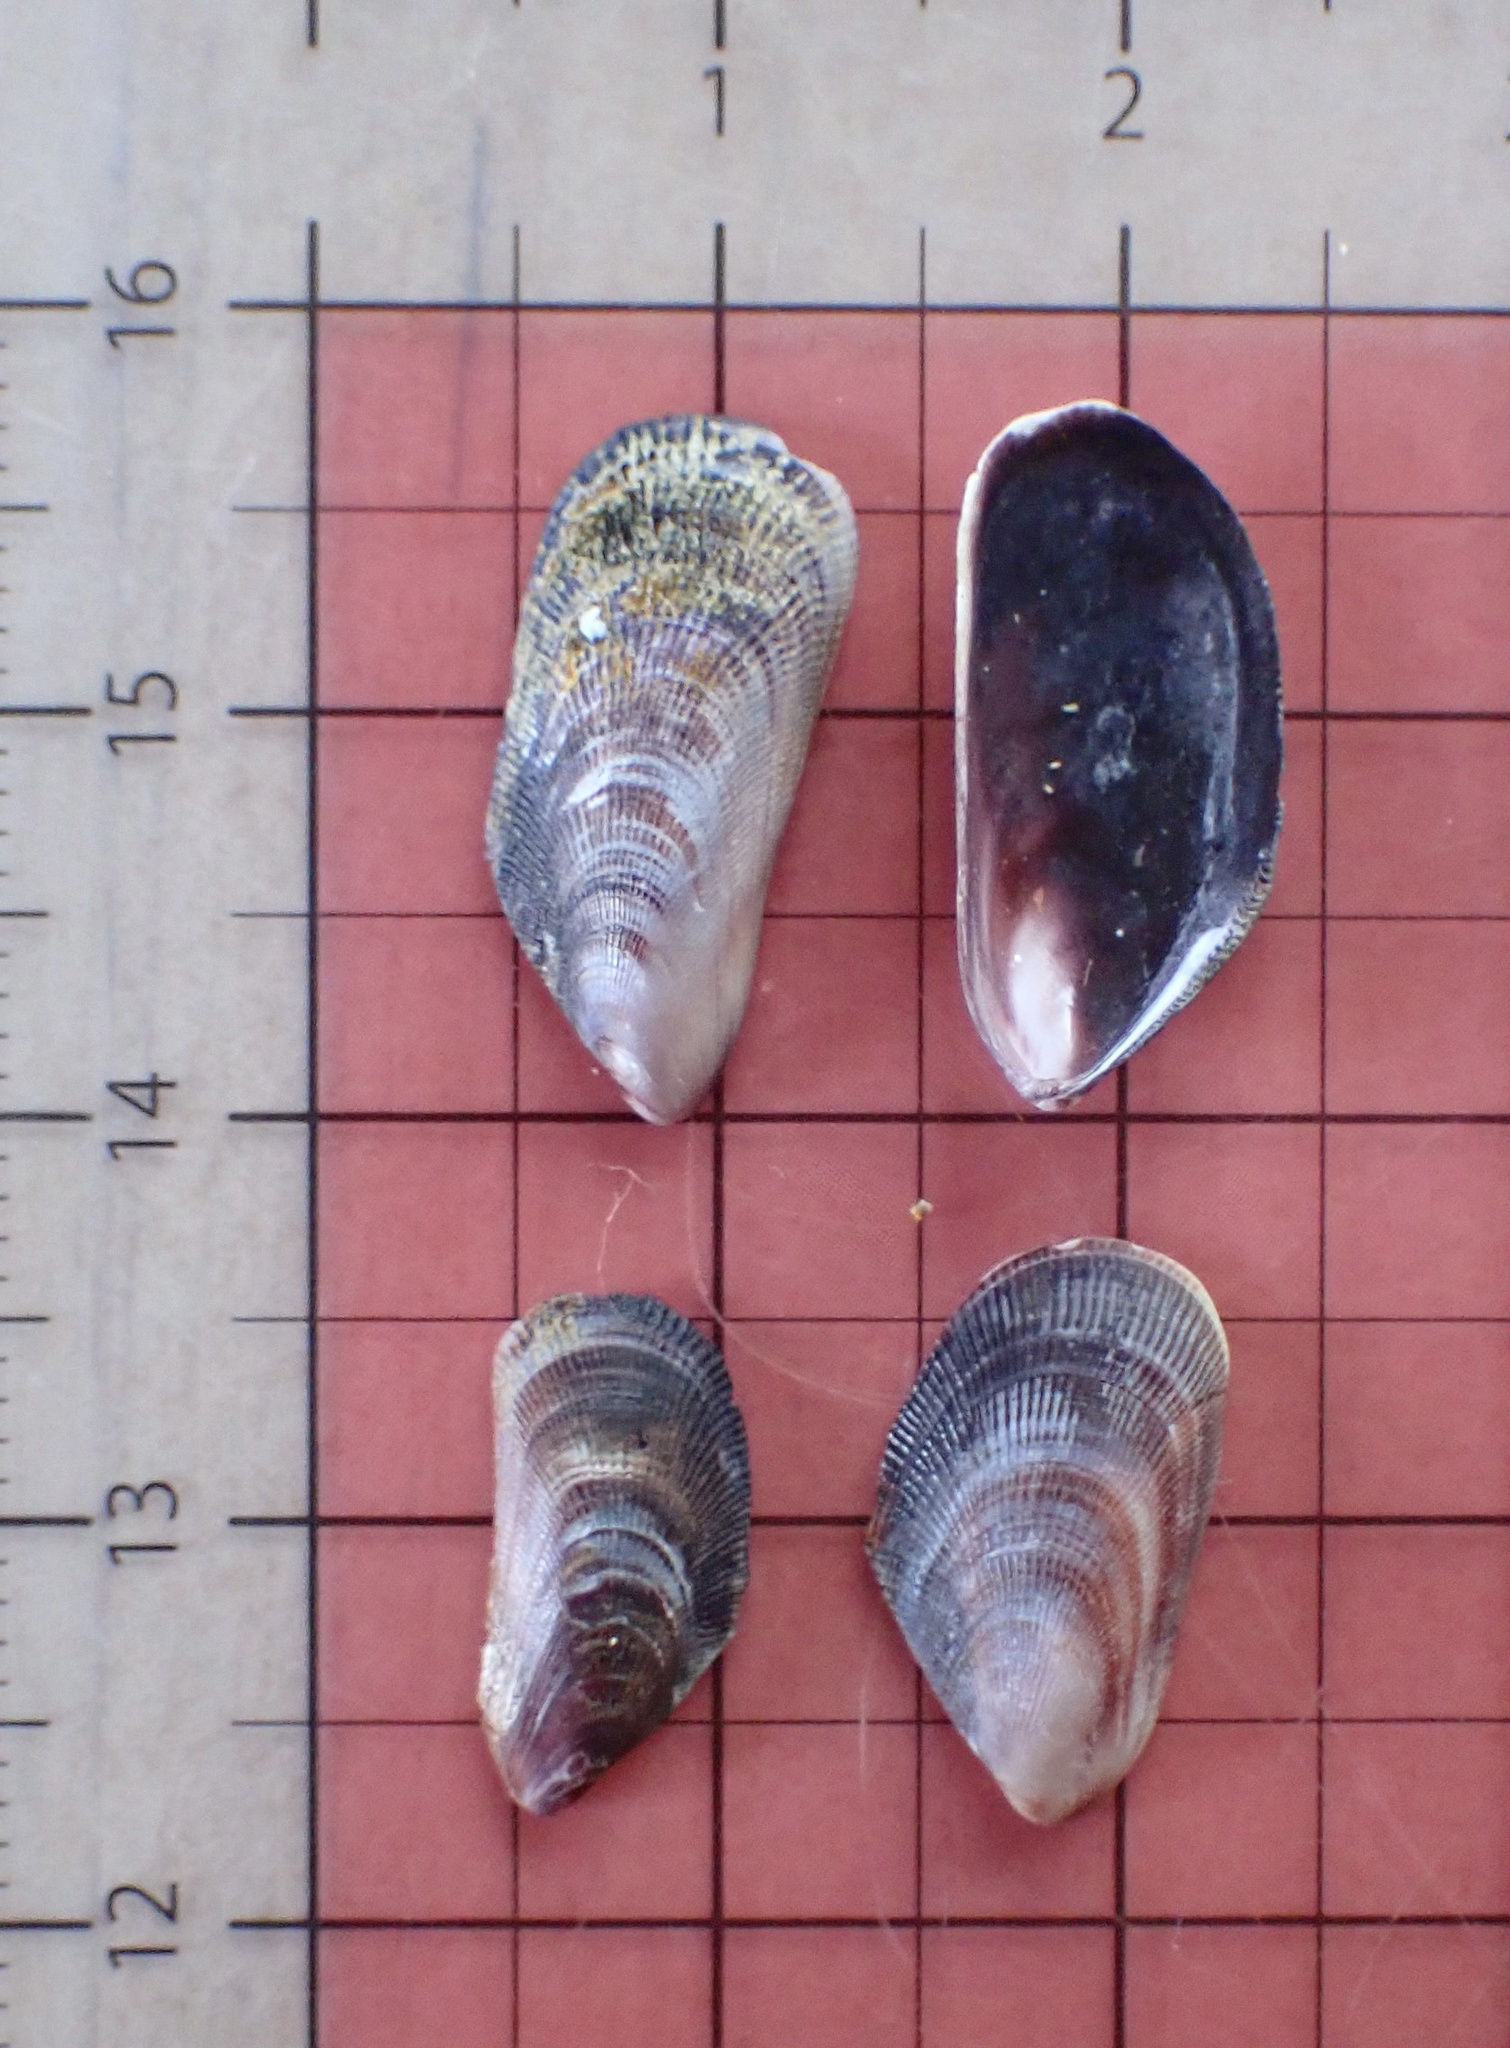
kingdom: Animalia
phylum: Mollusca
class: Bivalvia
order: Mytilida
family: Mytilidae
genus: Brachidontes
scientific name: Brachidontes crebristriatus
